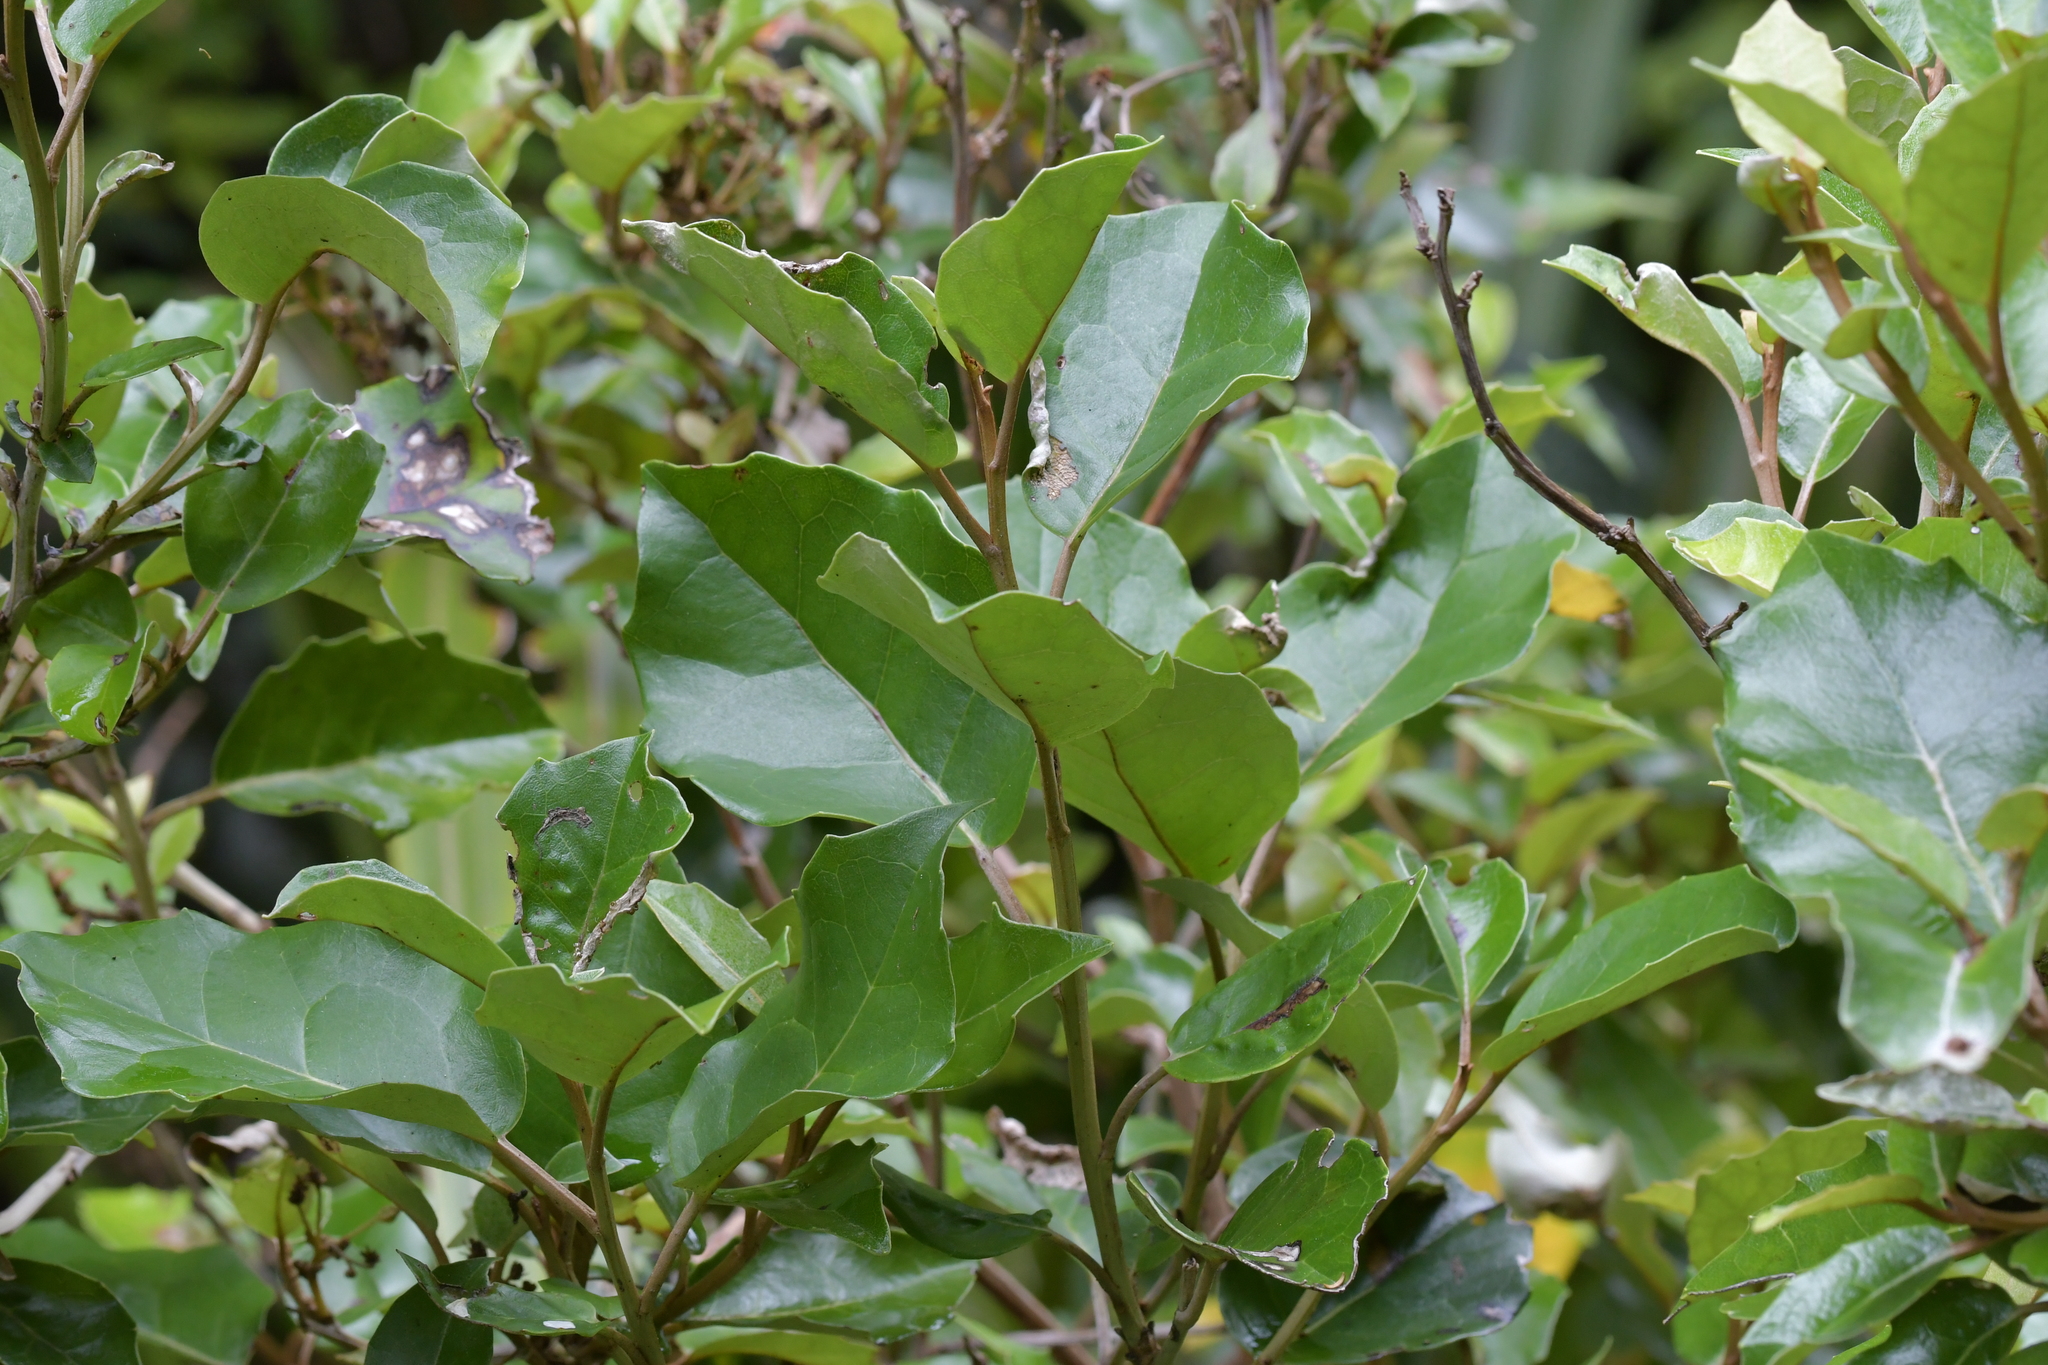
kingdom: Plantae
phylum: Tracheophyta
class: Magnoliopsida
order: Asterales
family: Asteraceae
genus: Olearia
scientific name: Olearia arborescens
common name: Glossy tree daisy
